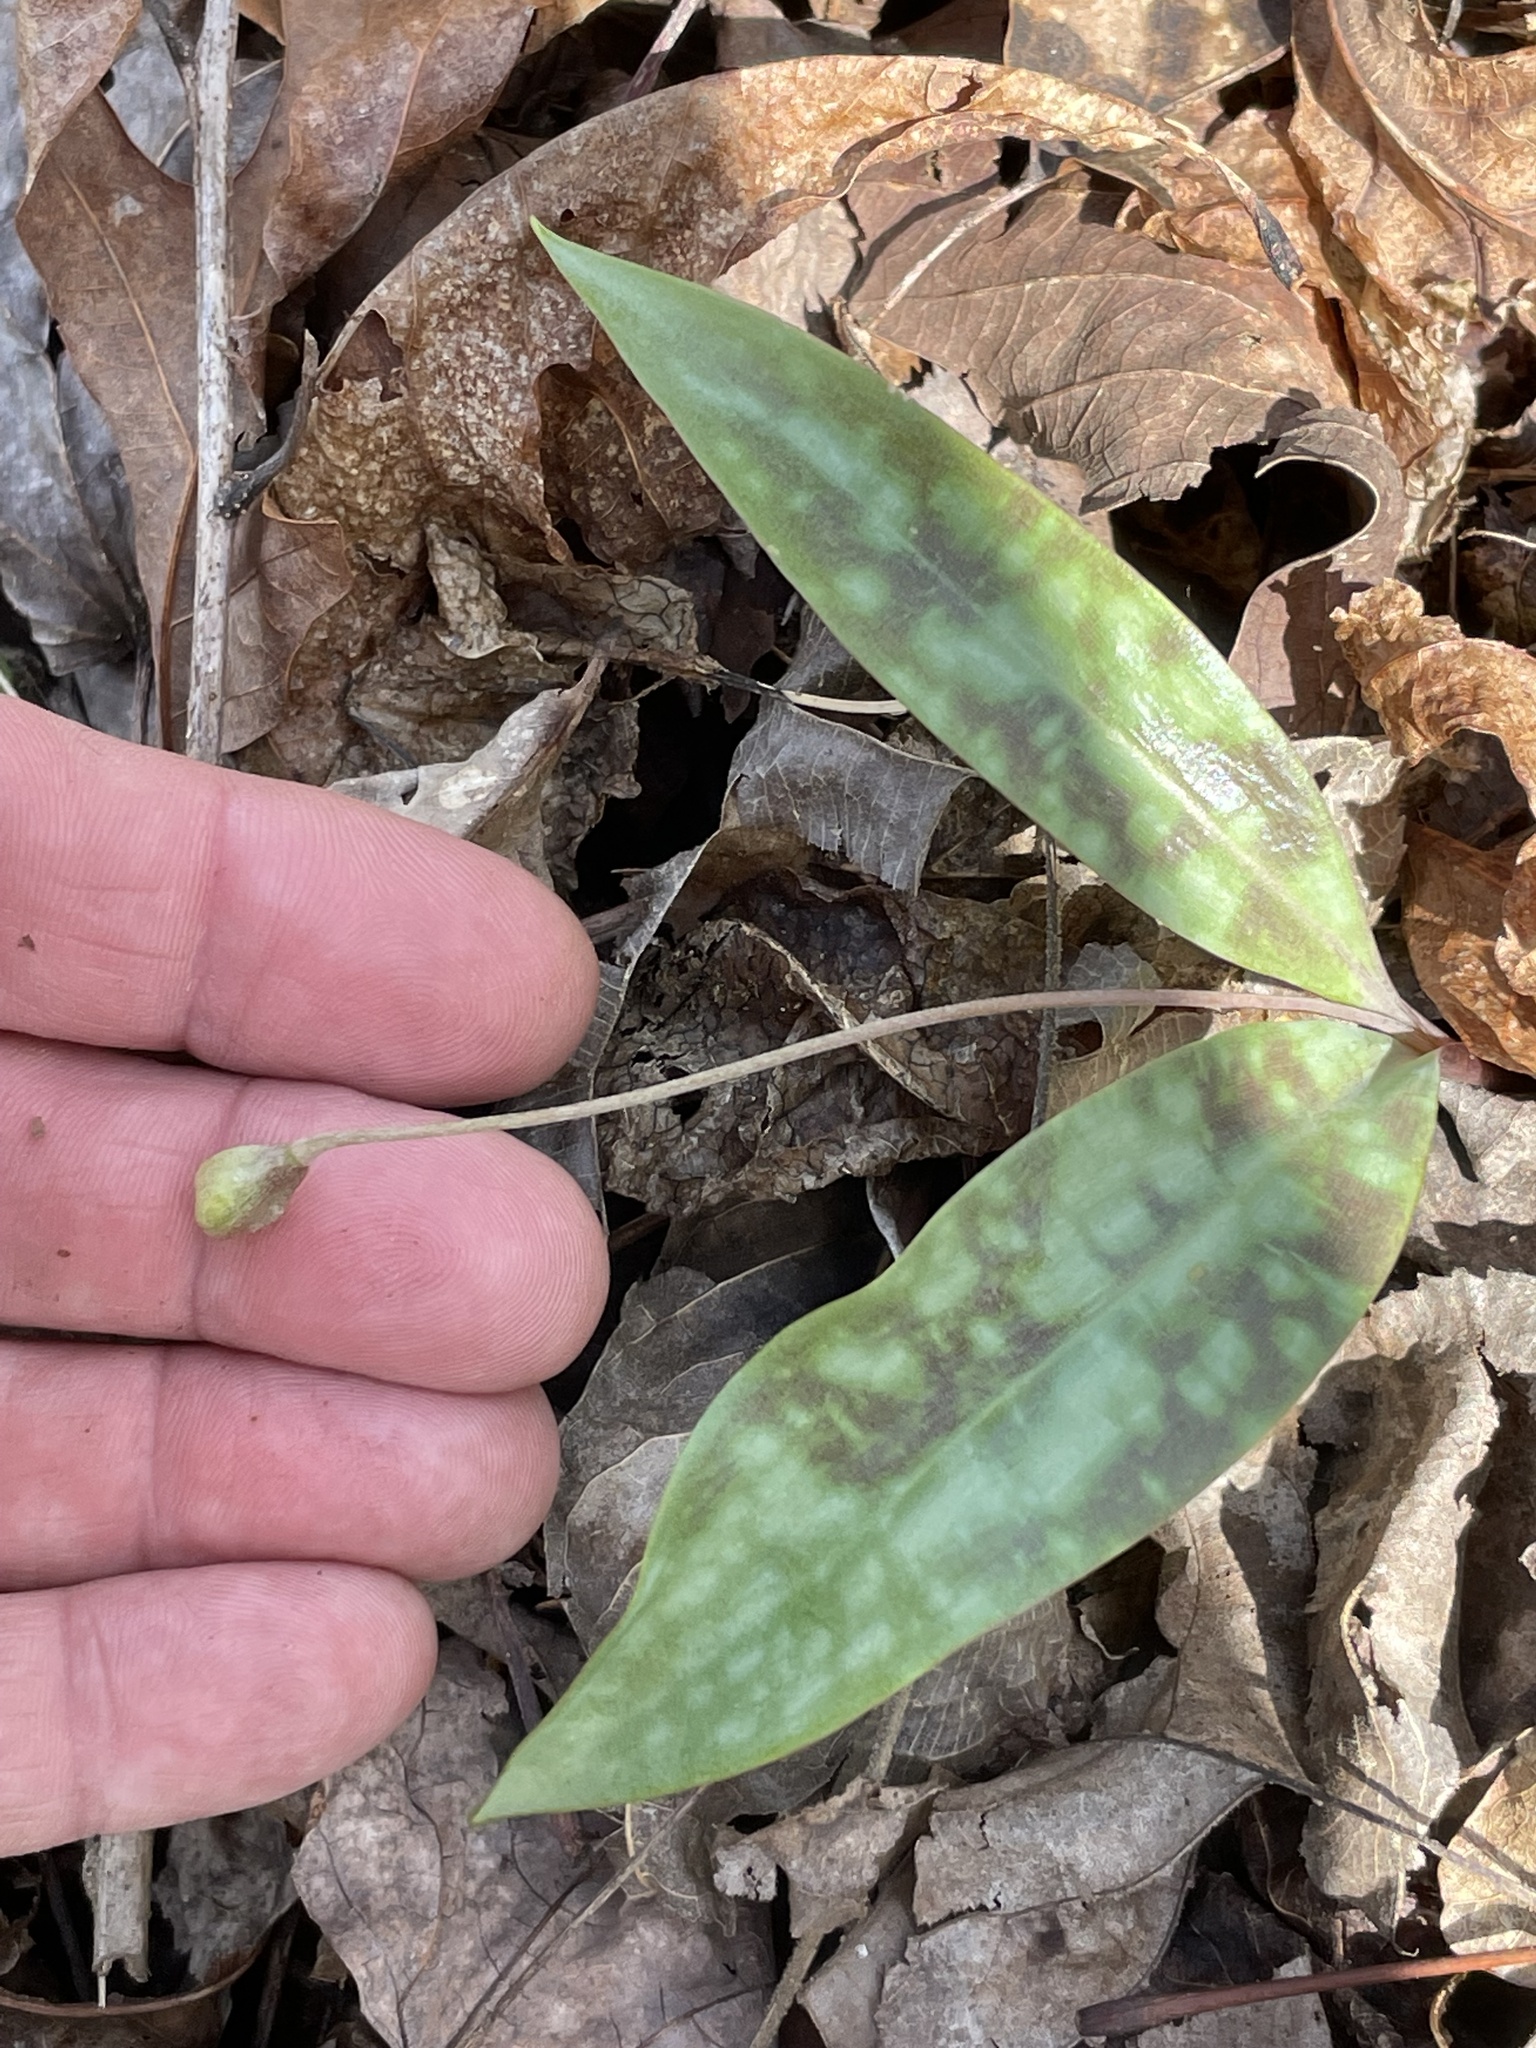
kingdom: Plantae
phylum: Tracheophyta
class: Liliopsida
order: Liliales
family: Liliaceae
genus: Erythronium
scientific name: Erythronium umbilicatum
